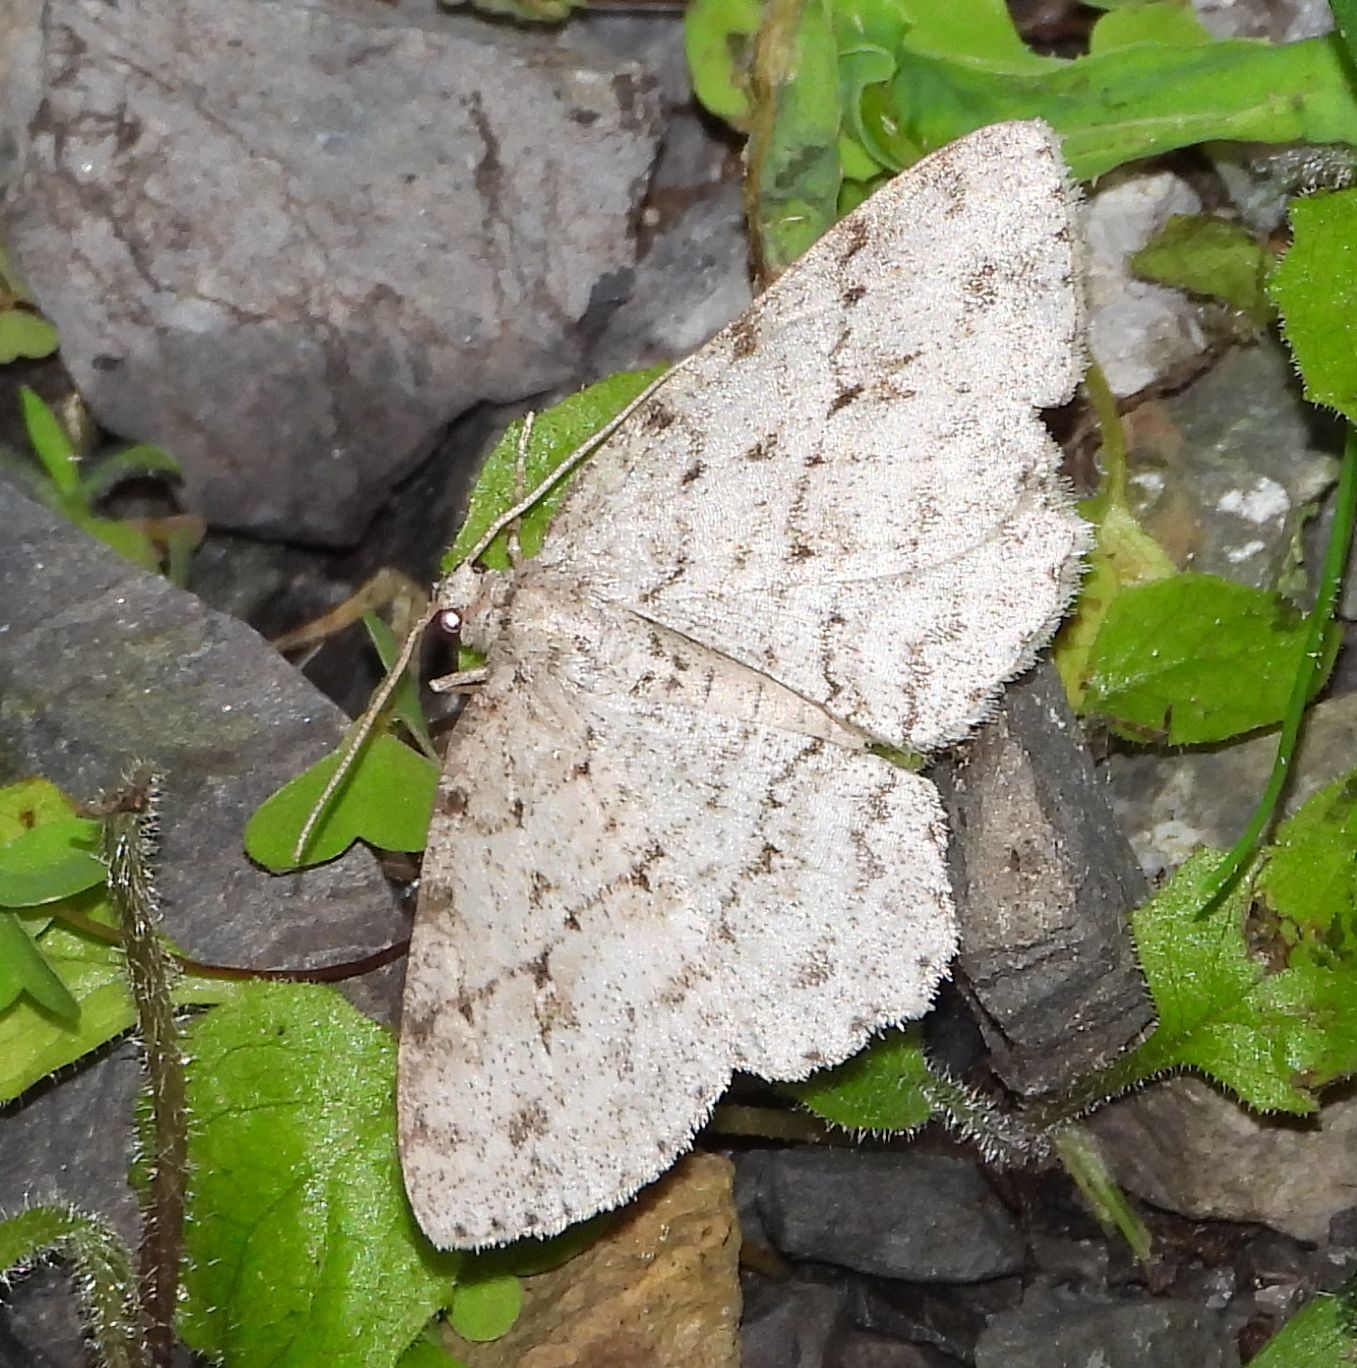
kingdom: Animalia
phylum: Arthropoda
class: Insecta
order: Lepidoptera
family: Geometridae
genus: Ectropis
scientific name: Ectropis crepuscularia
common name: Engrailed
